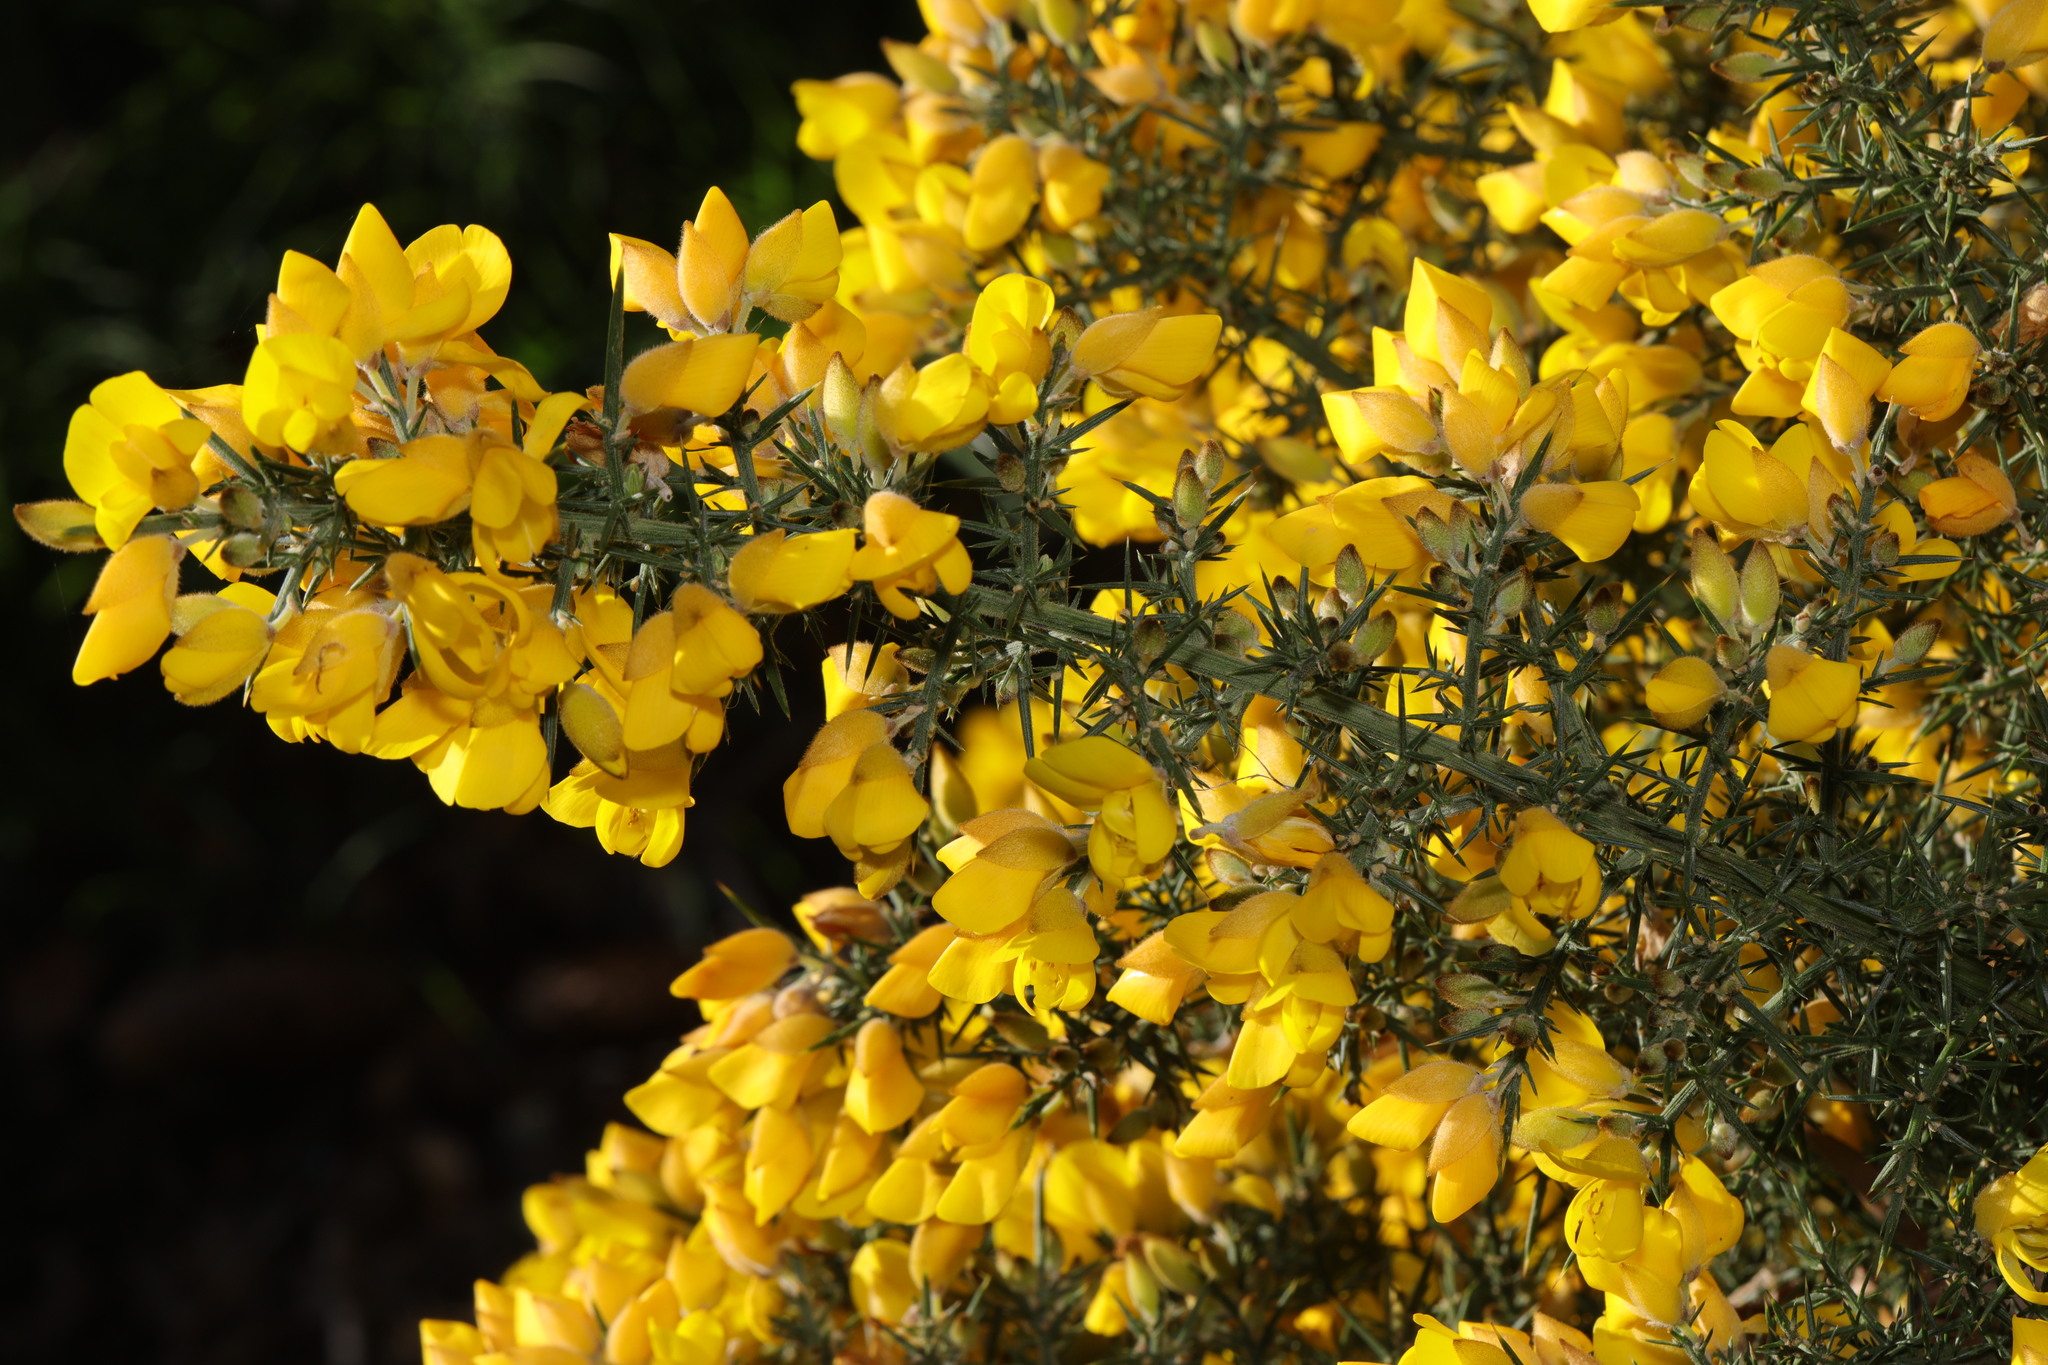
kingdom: Plantae
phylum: Tracheophyta
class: Magnoliopsida
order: Fabales
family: Fabaceae
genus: Ulex
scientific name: Ulex europaeus
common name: Common gorse
